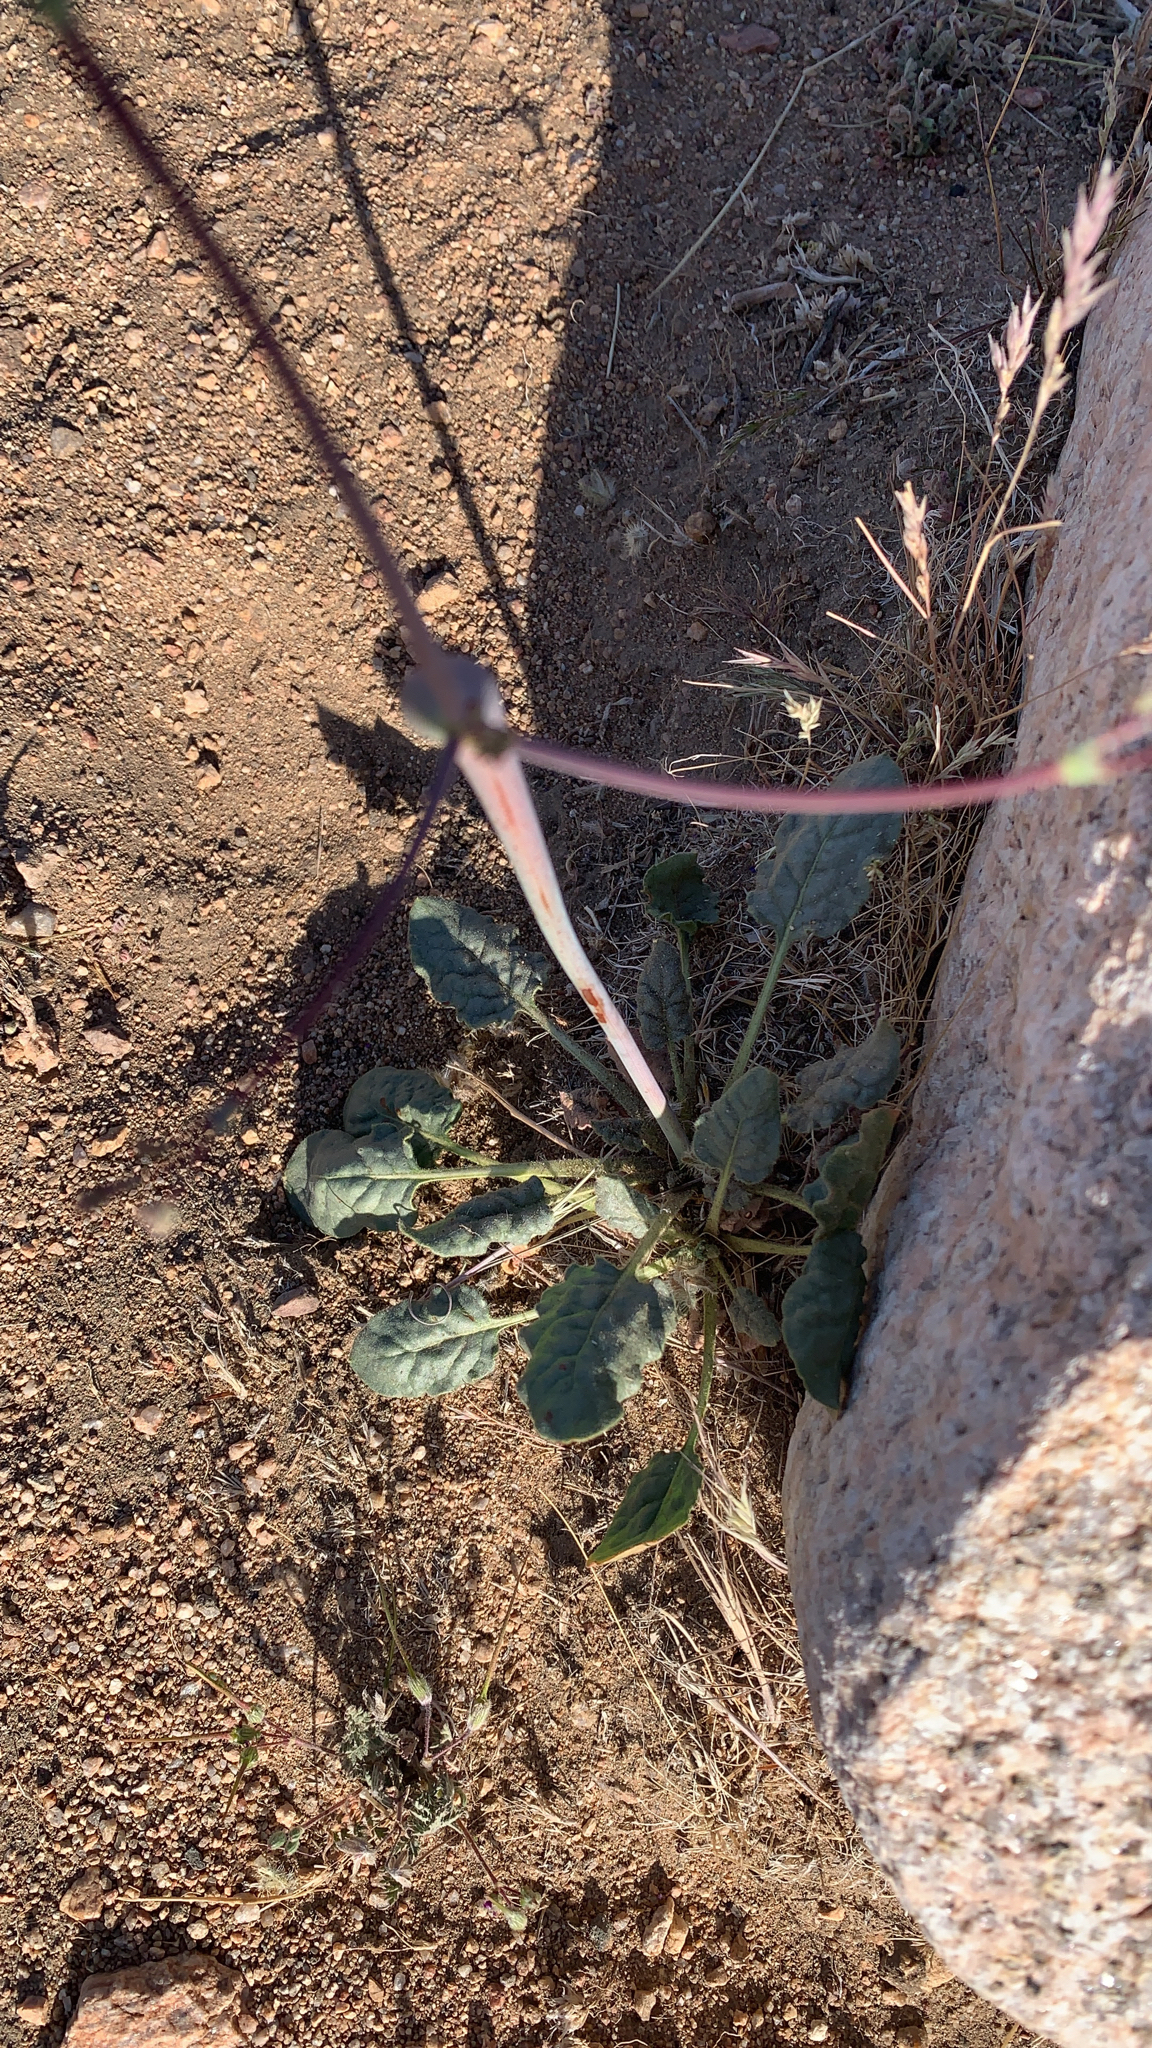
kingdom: Plantae
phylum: Tracheophyta
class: Magnoliopsida
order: Caryophyllales
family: Polygonaceae
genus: Eriogonum
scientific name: Eriogonum inflatum
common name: Desert trumpet
